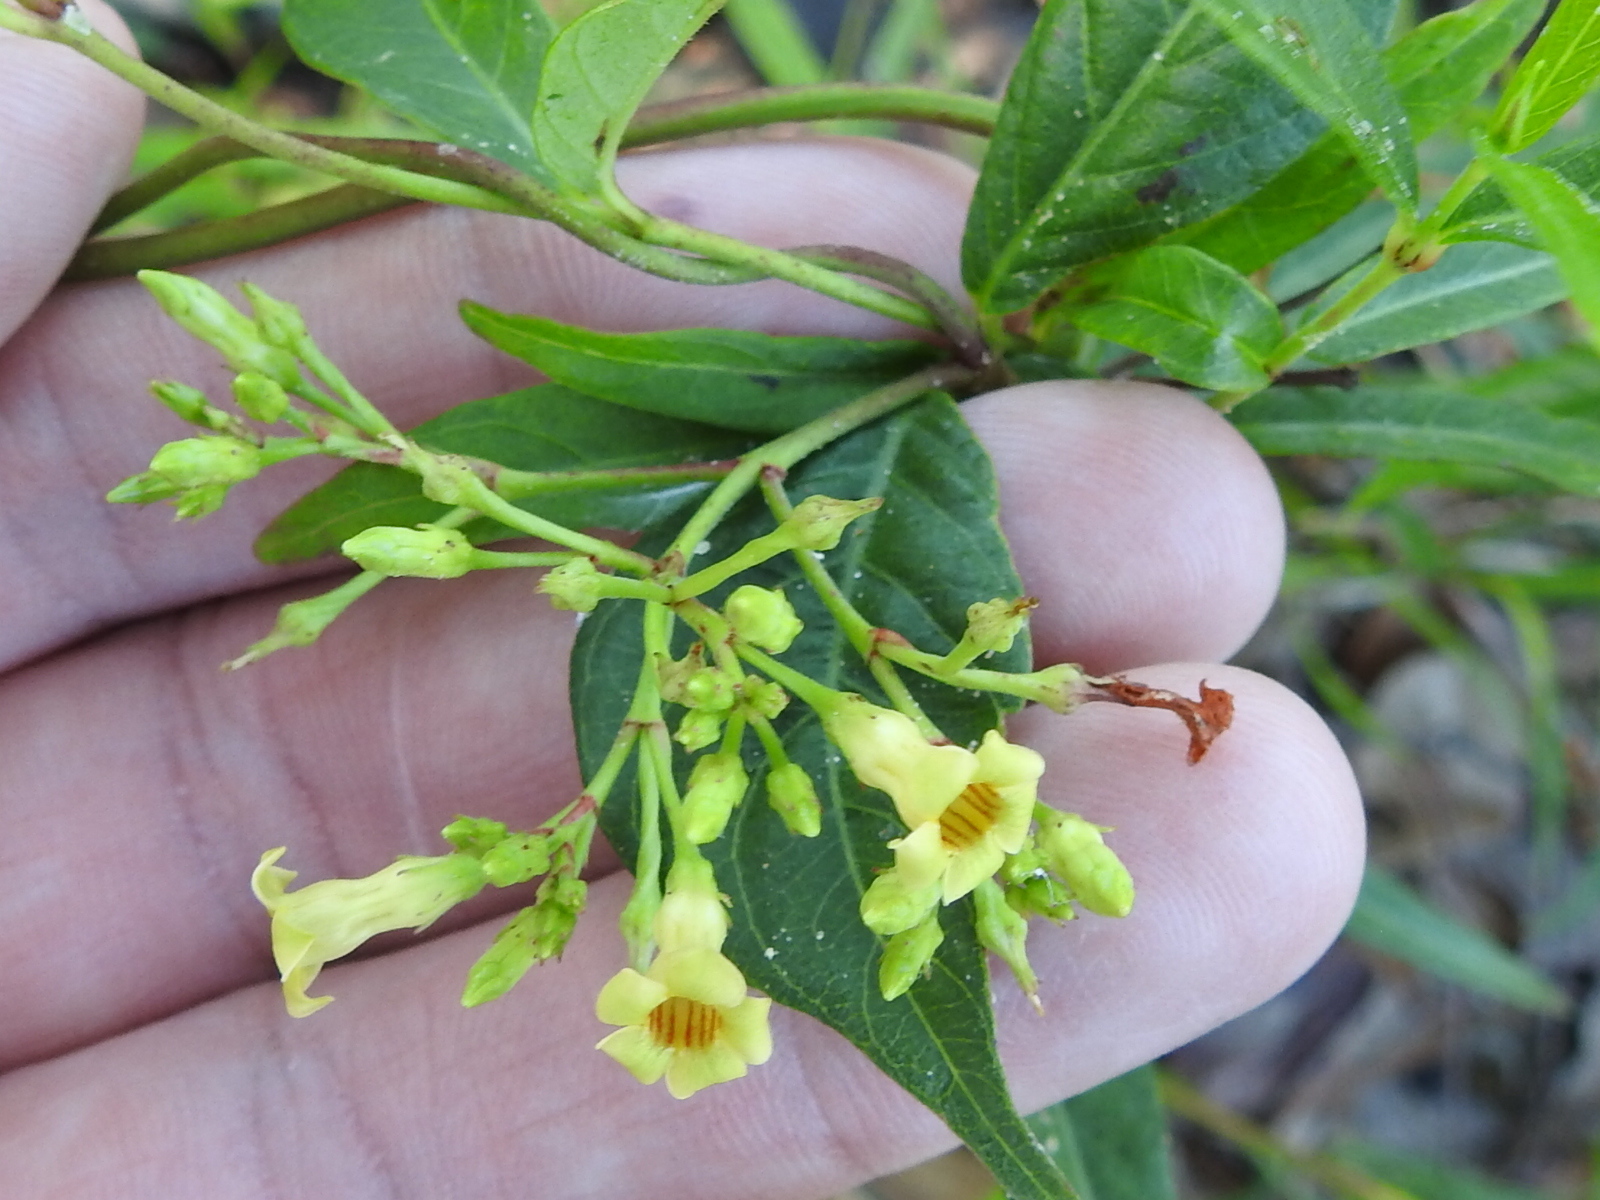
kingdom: Plantae
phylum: Tracheophyta
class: Magnoliopsida
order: Gentianales
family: Apocynaceae
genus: Apocynum
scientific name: Apocynum cannabinum
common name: Hemp dogbane
